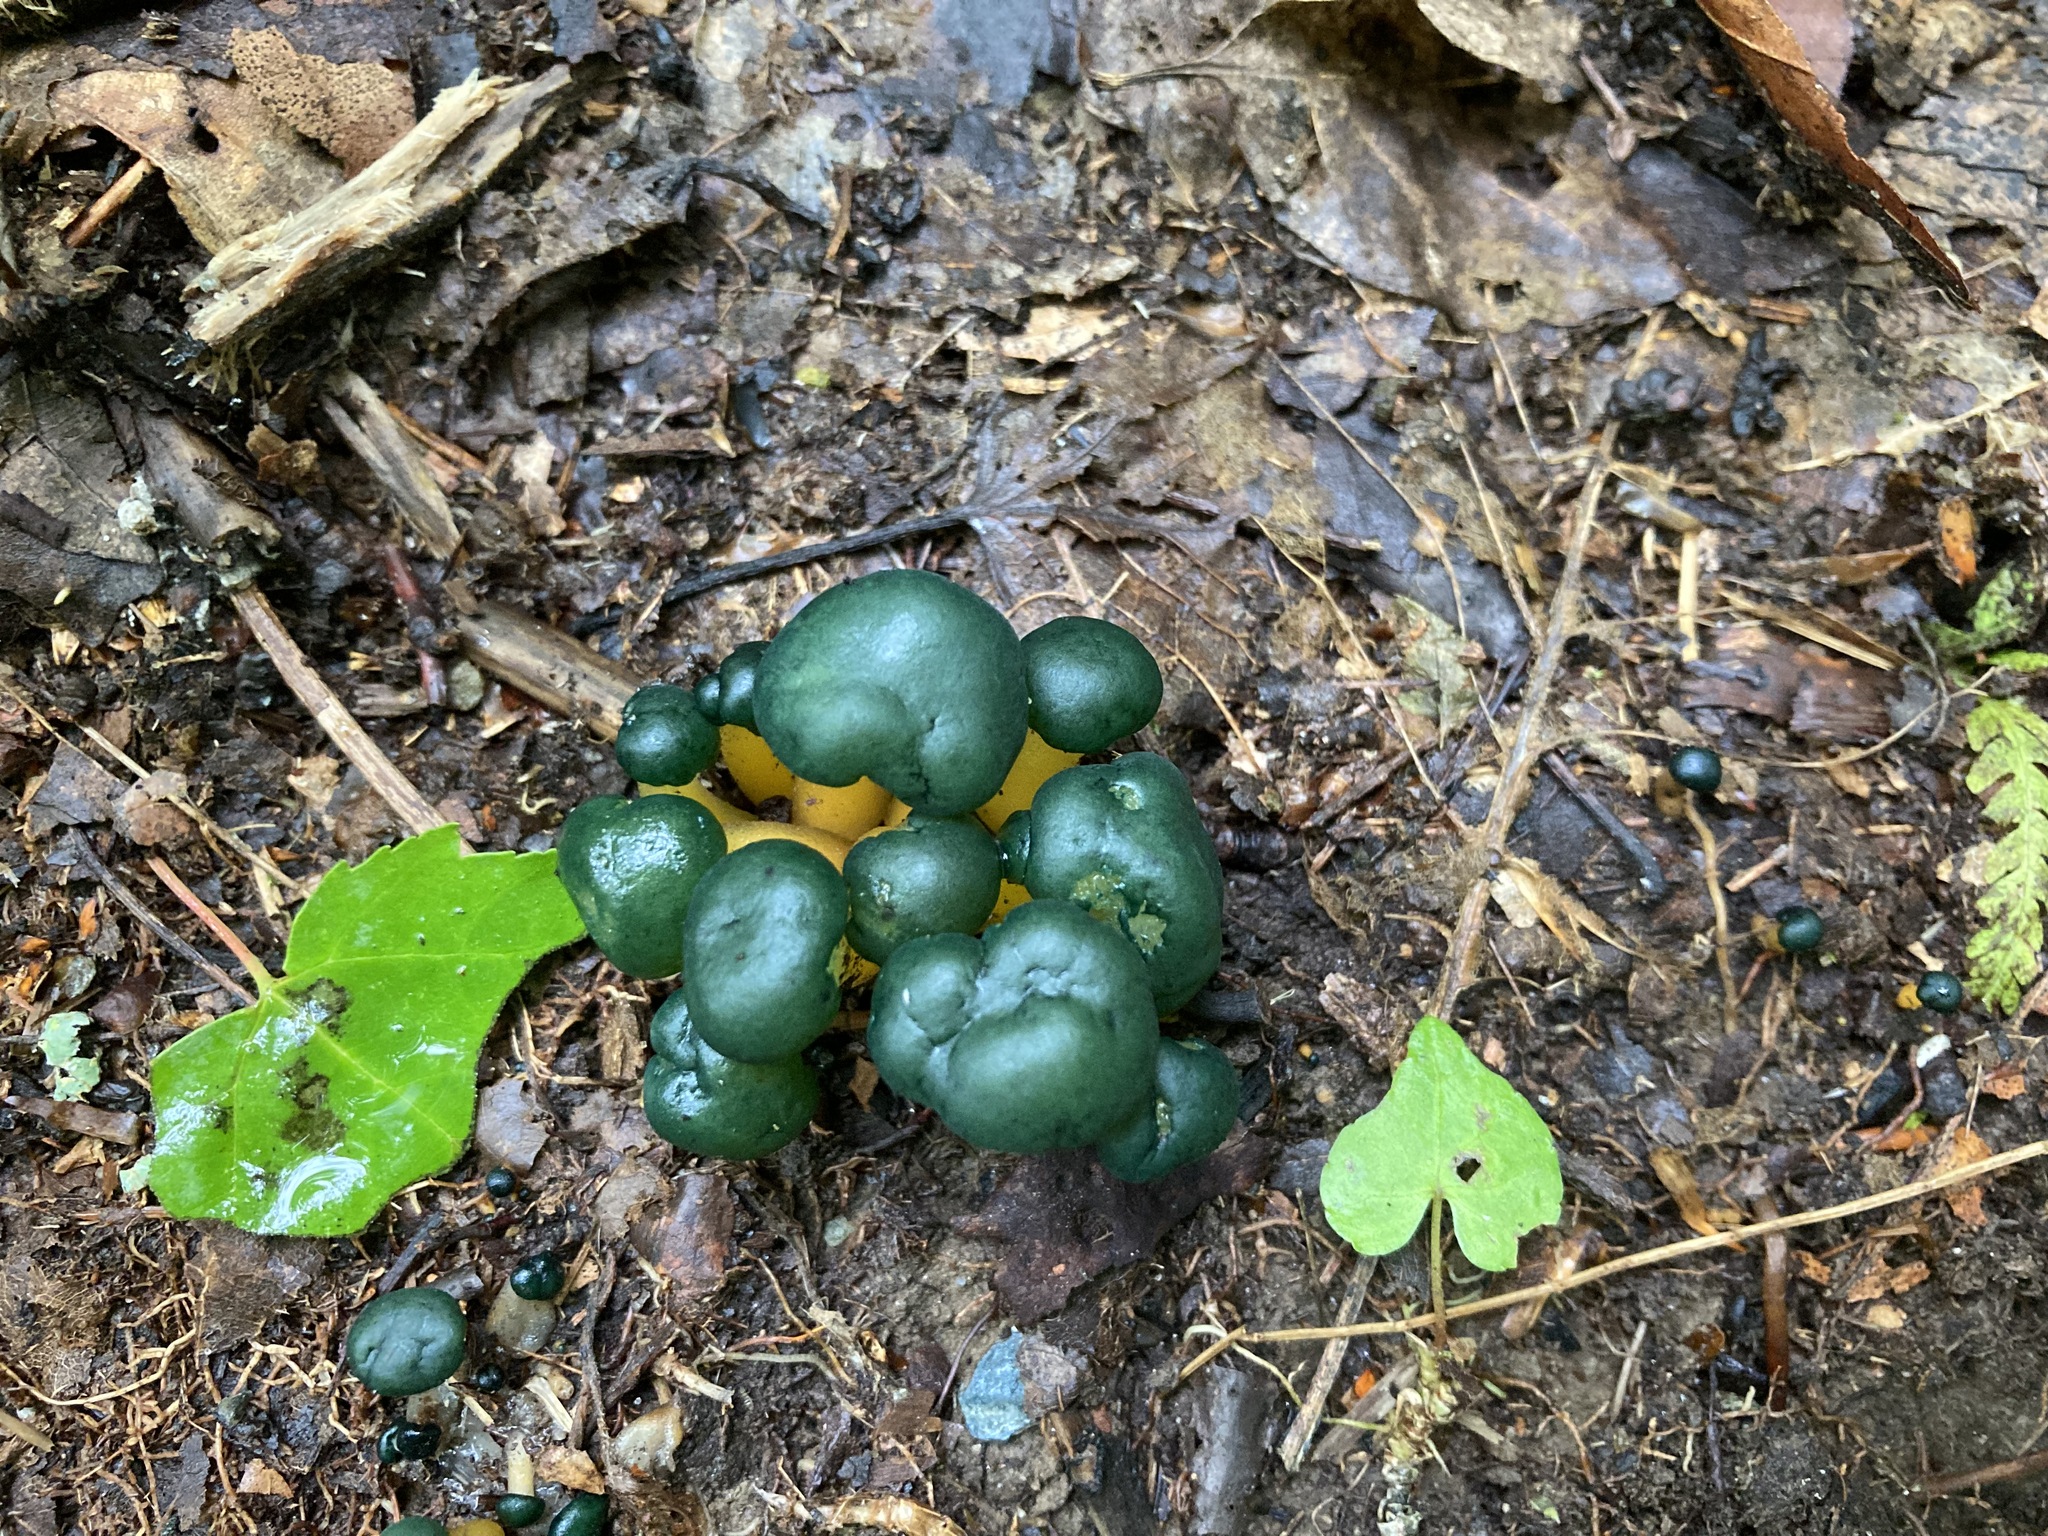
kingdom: Fungi
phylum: Ascomycota
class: Leotiomycetes
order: Leotiales
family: Leotiaceae
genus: Leotia
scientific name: Leotia lubrica
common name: Jellybaby
